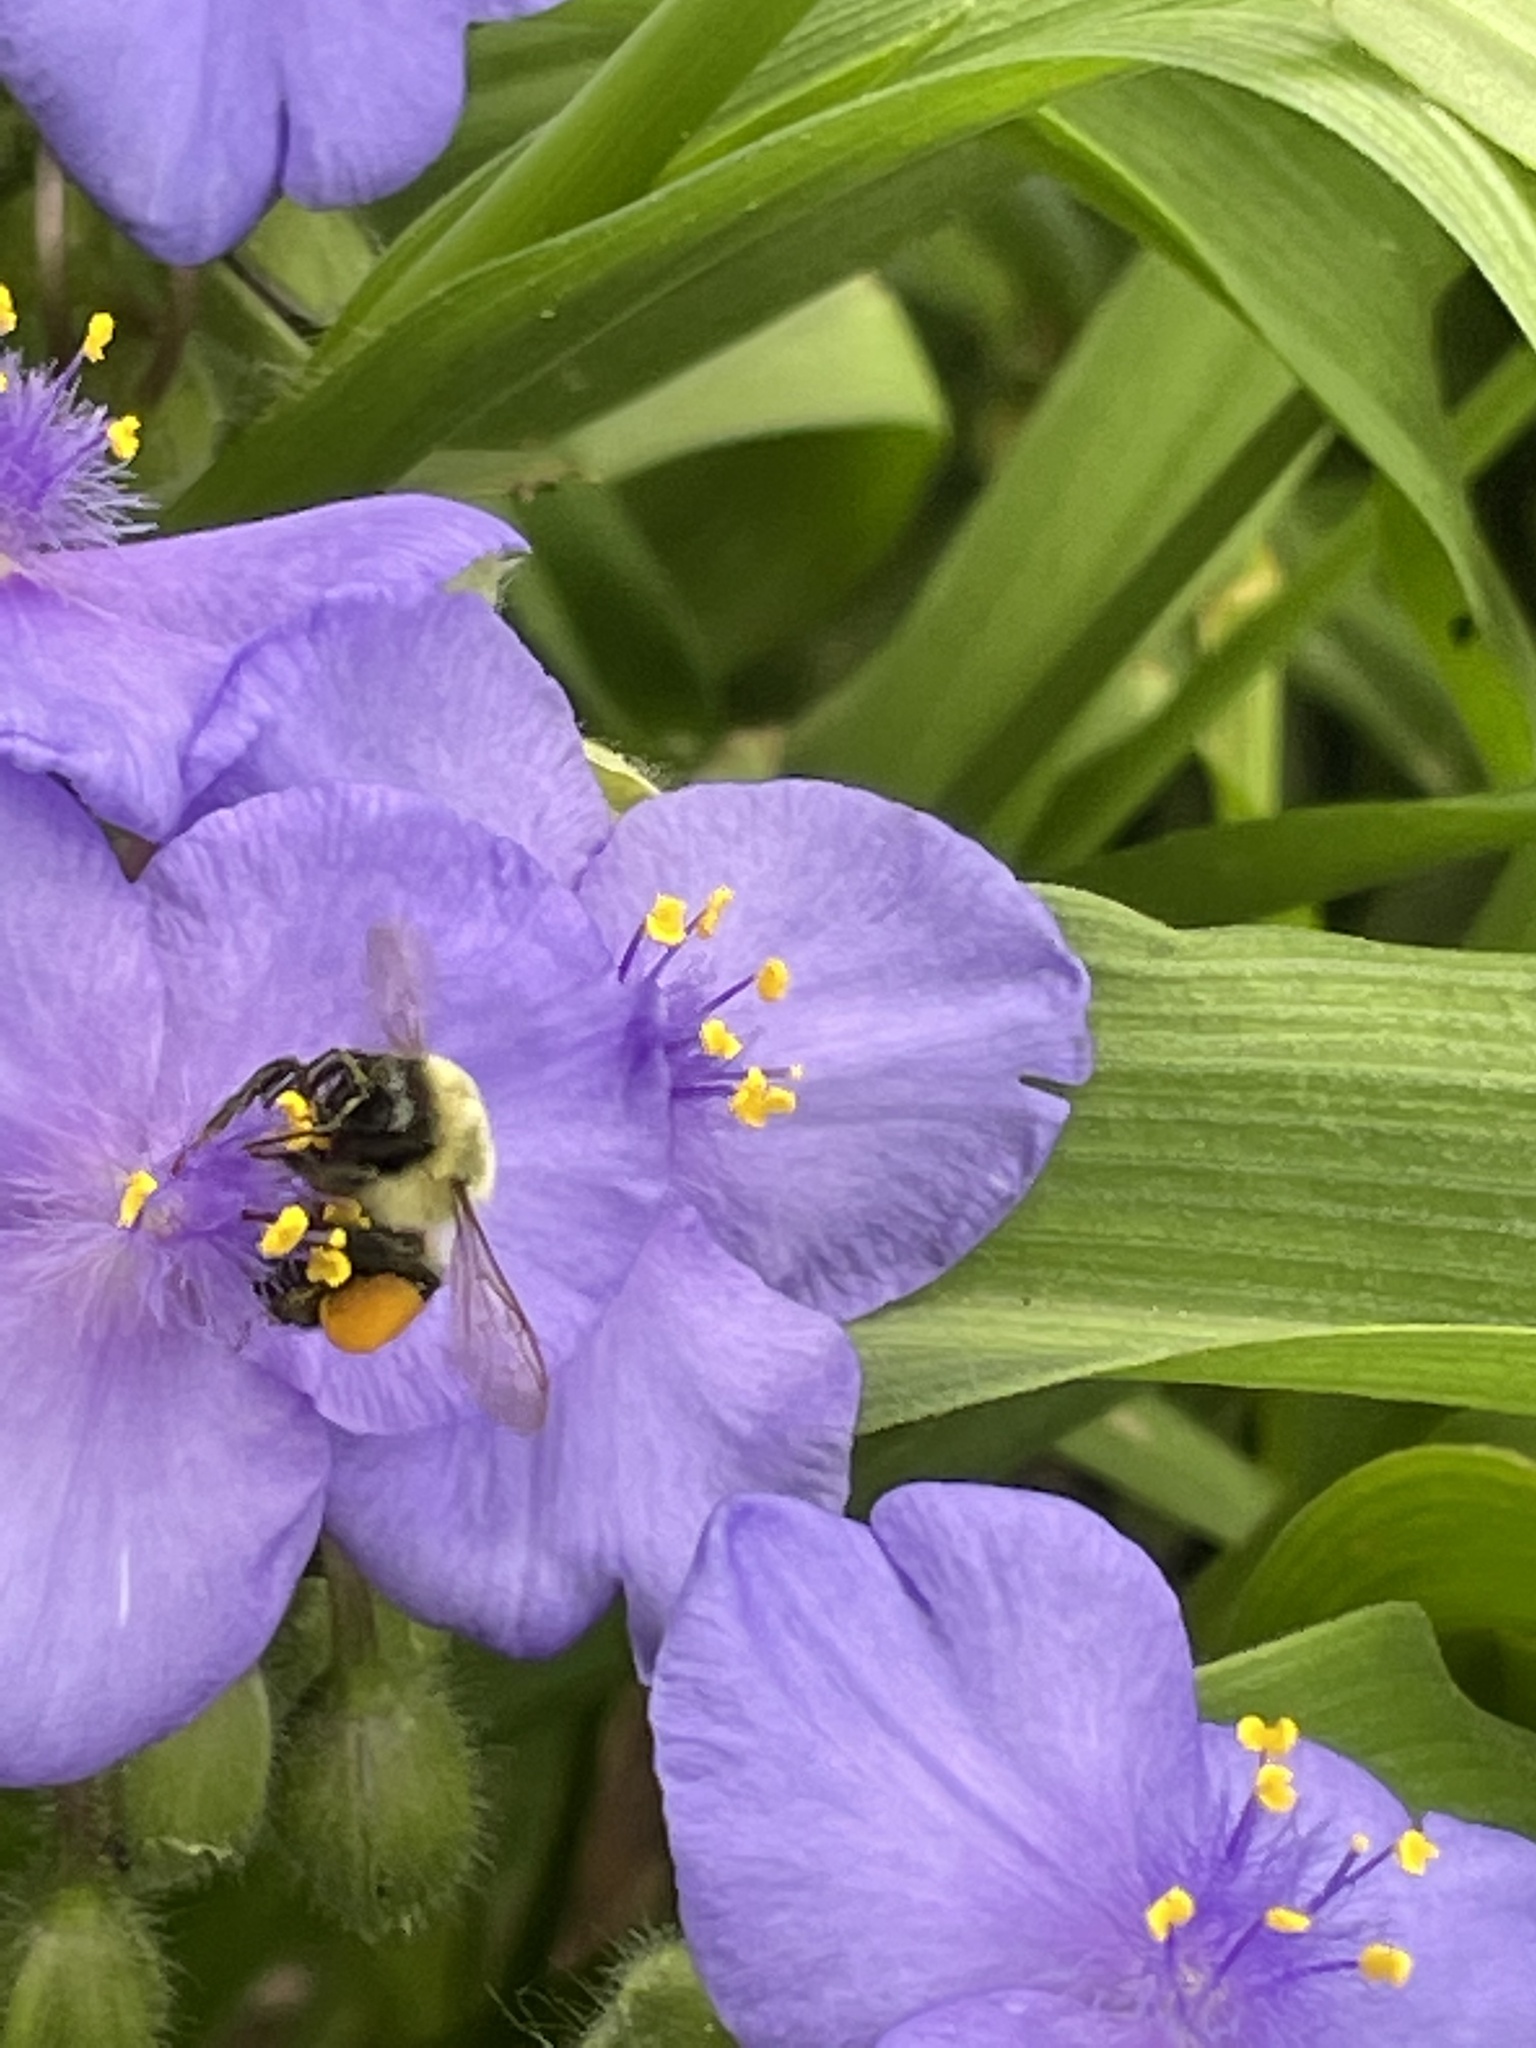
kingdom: Animalia
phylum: Arthropoda
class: Insecta
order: Hymenoptera
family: Apidae
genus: Bombus
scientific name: Bombus impatiens
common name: Common eastern bumble bee
